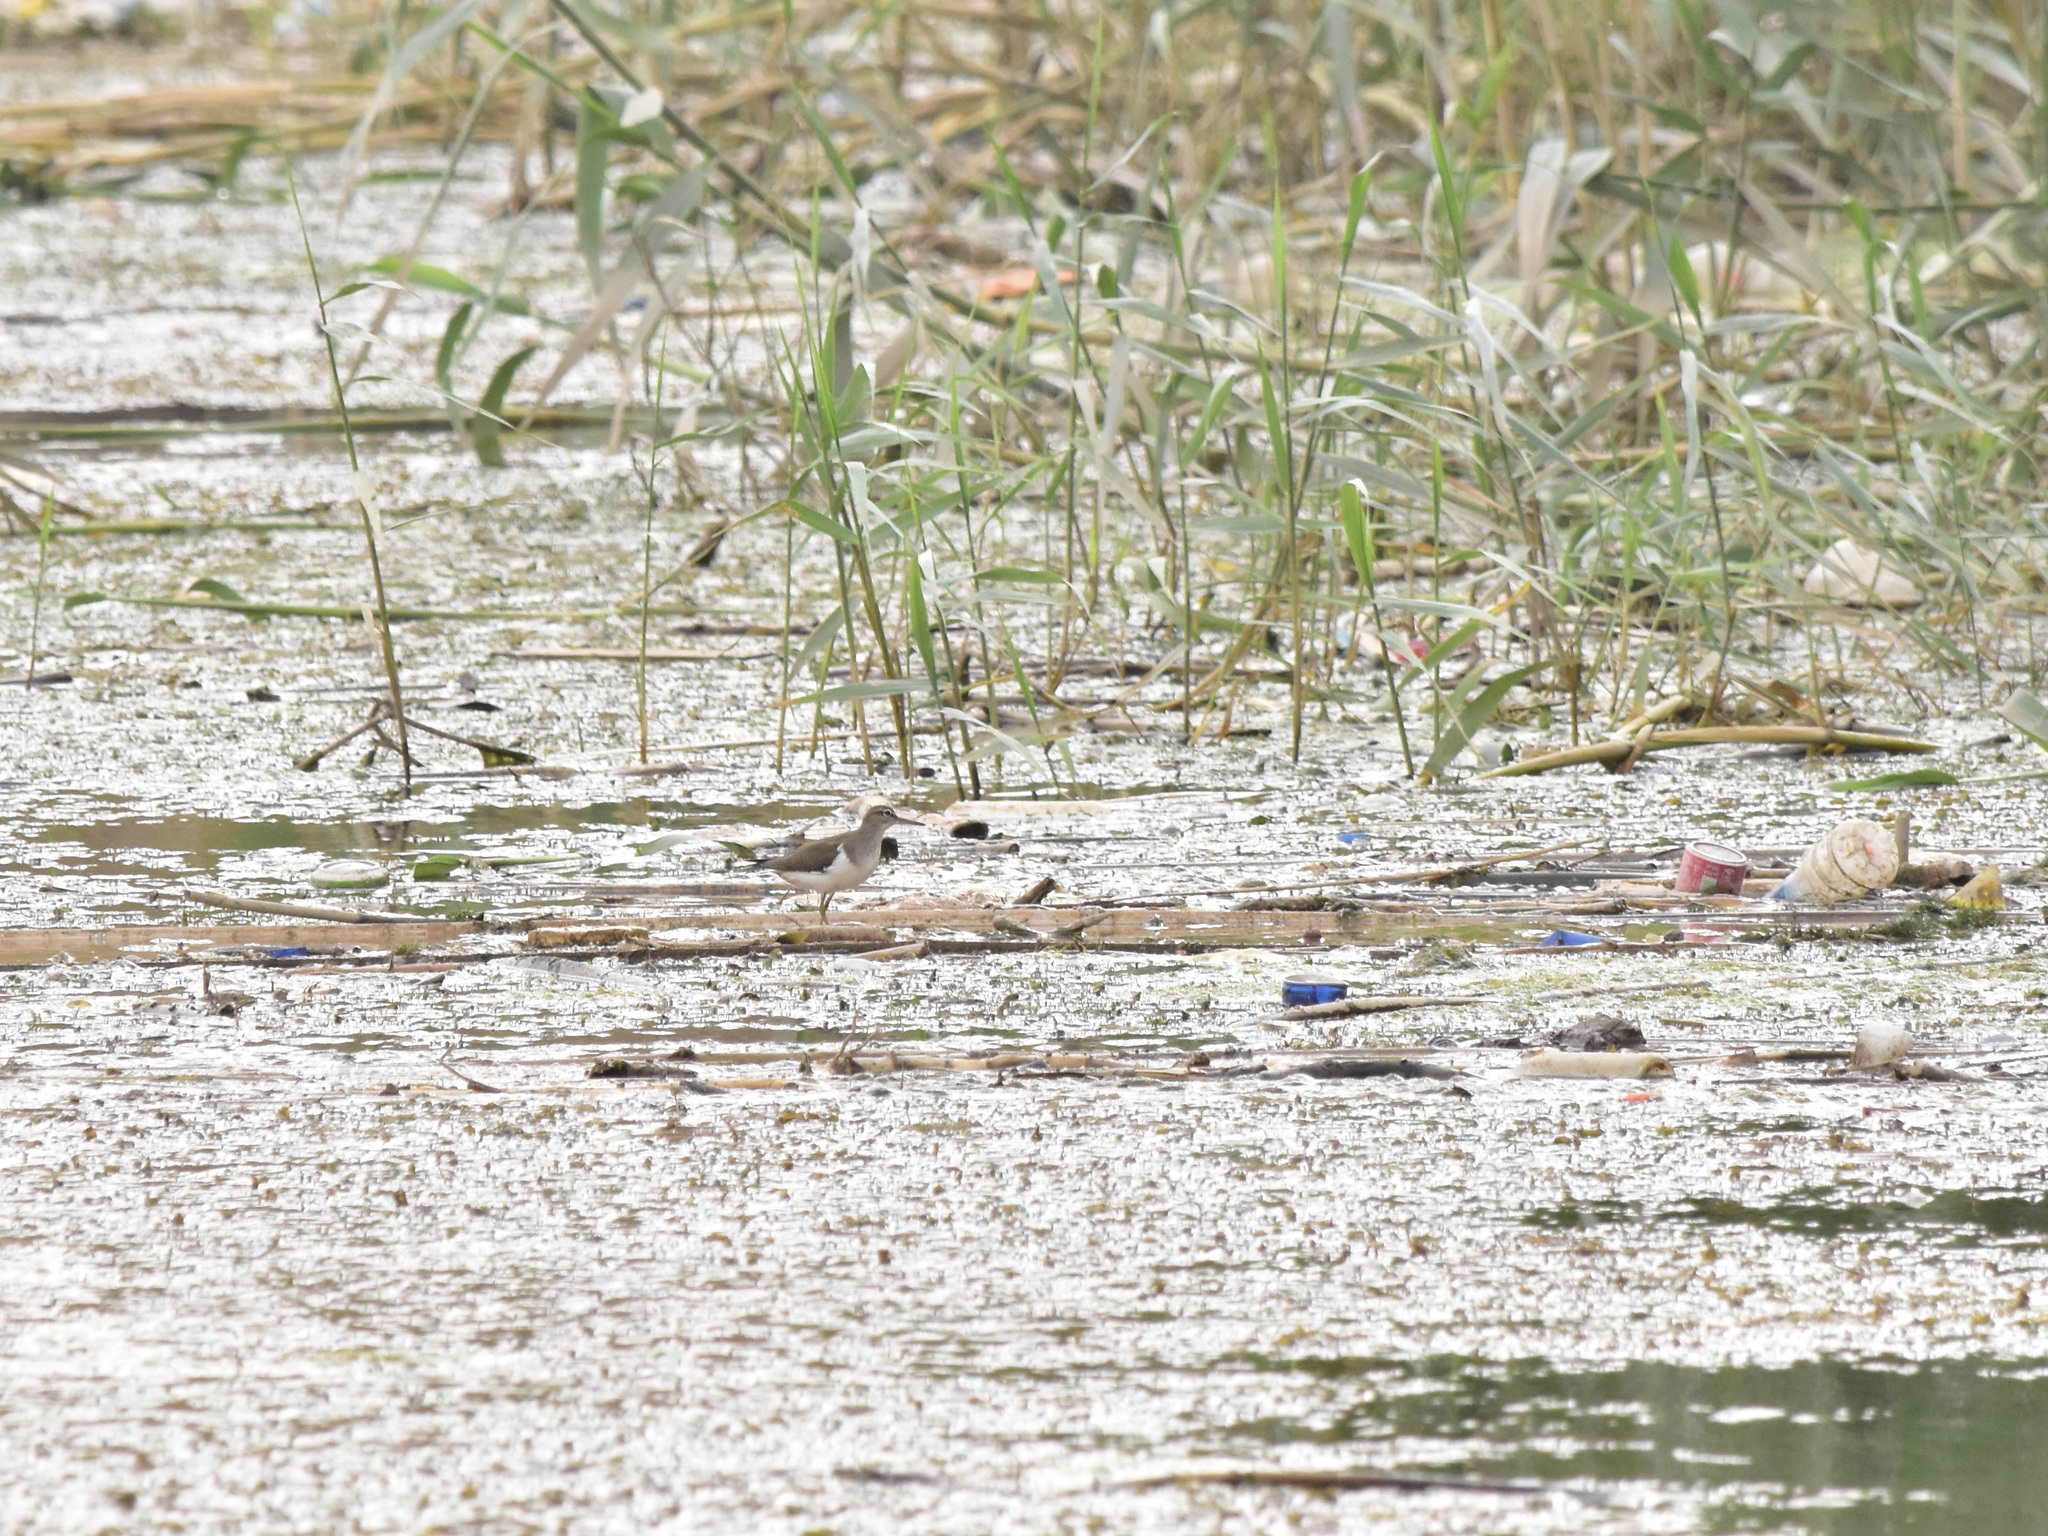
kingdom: Animalia
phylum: Chordata
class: Aves
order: Charadriiformes
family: Scolopacidae
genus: Actitis
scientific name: Actitis hypoleucos
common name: Common sandpiper
